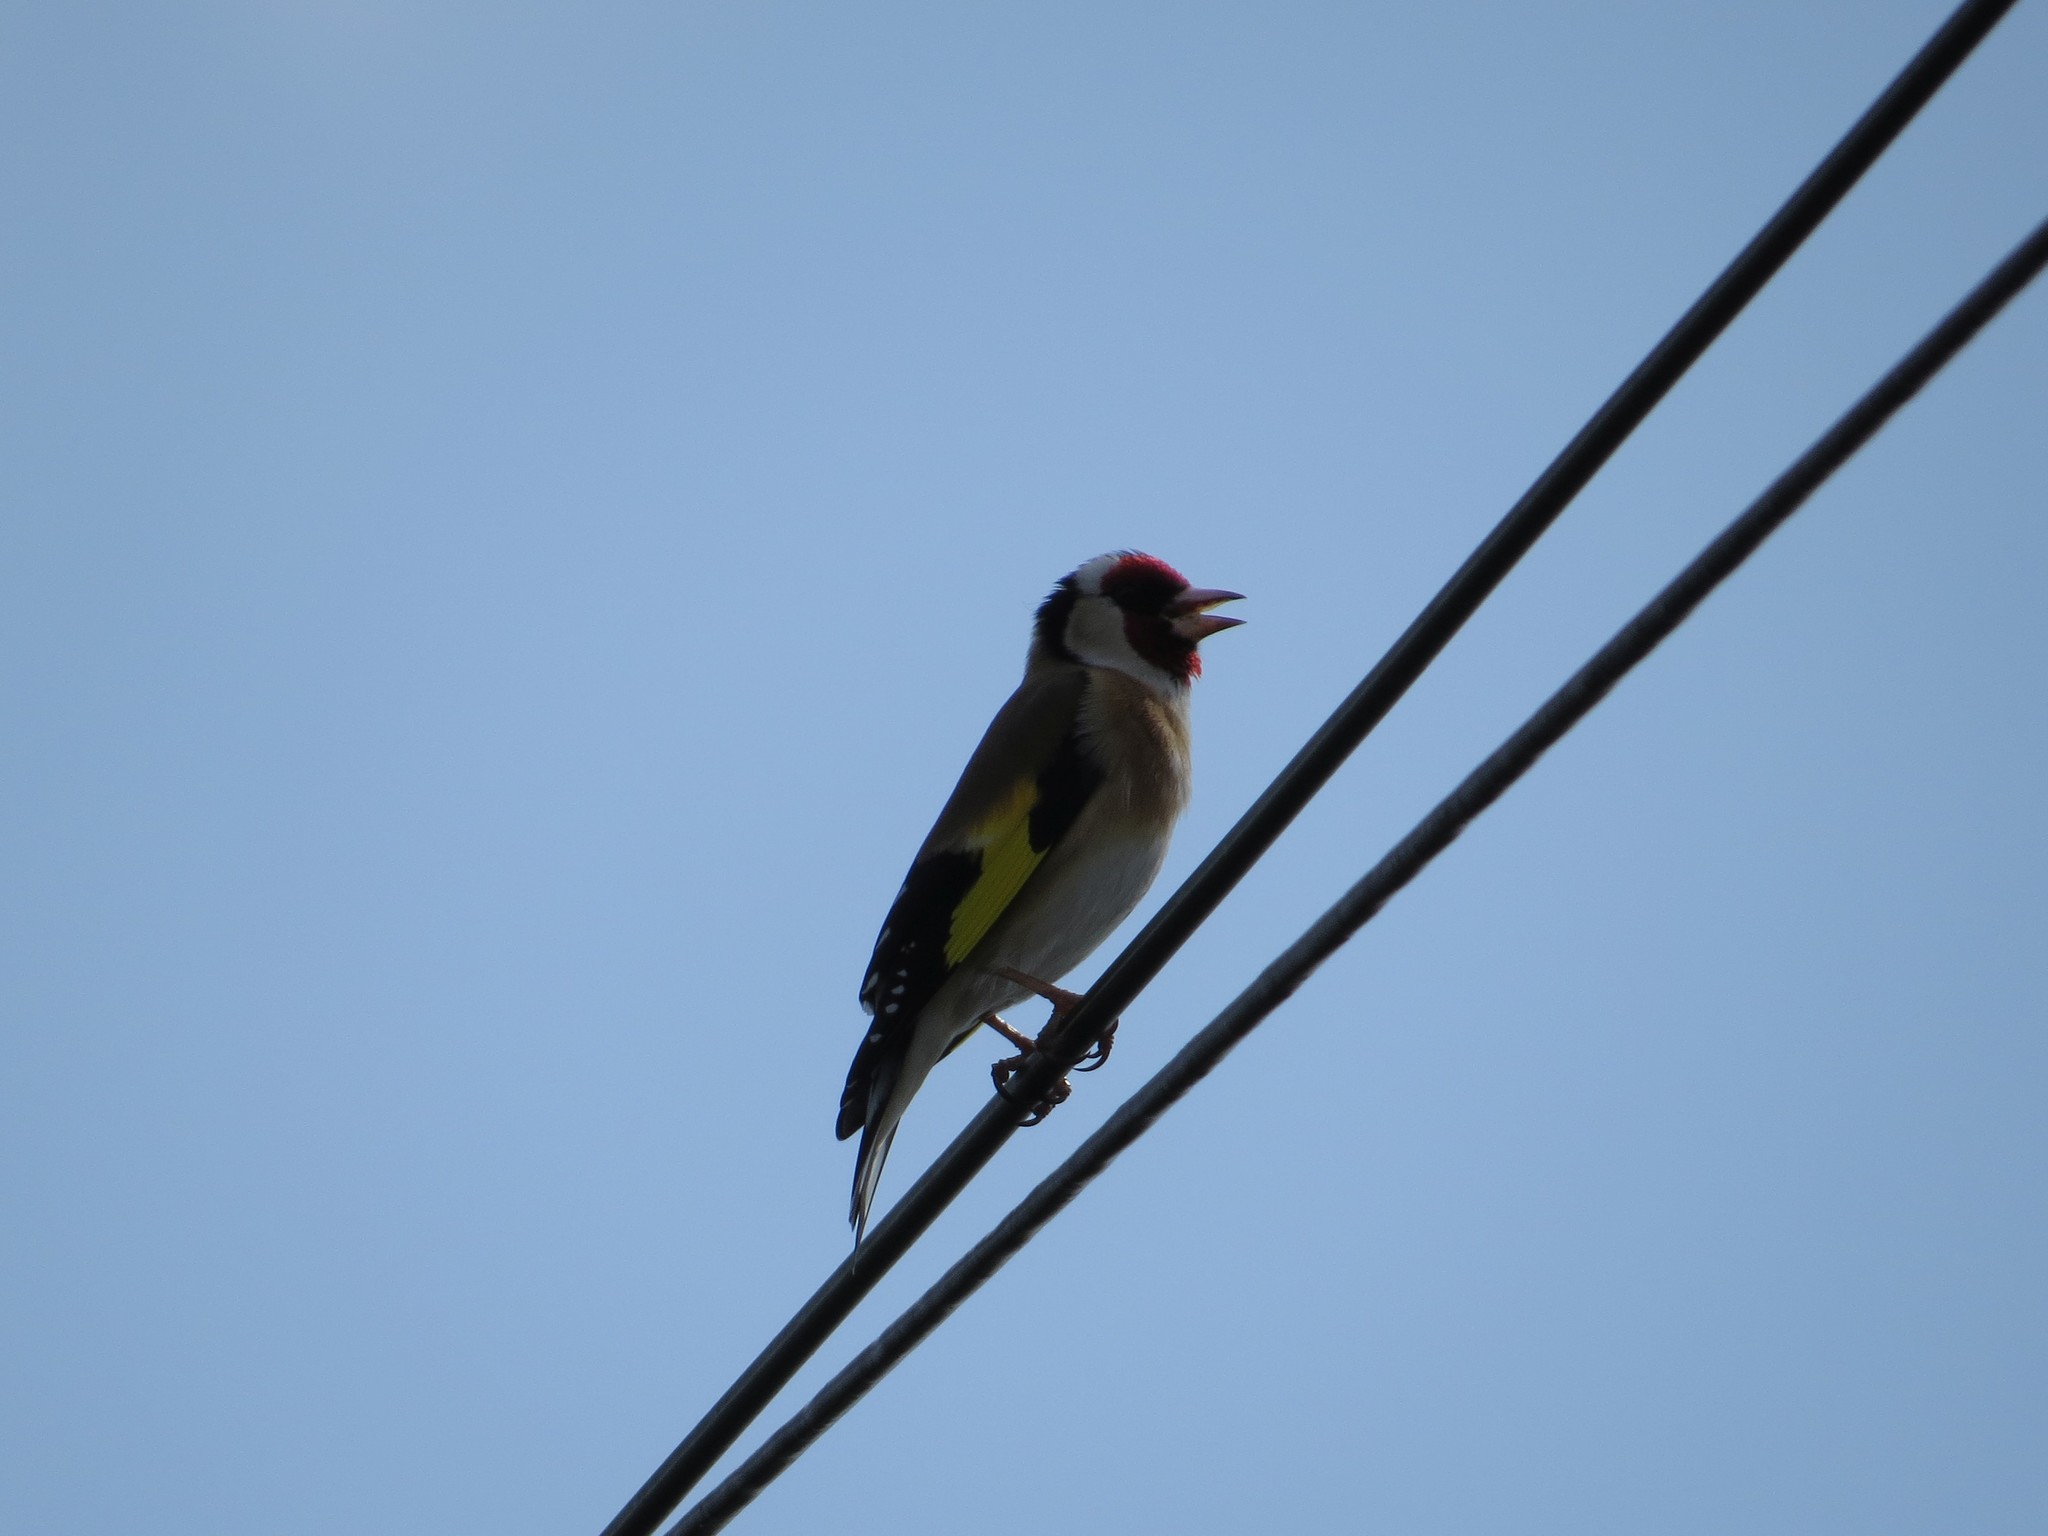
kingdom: Animalia
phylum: Chordata
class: Aves
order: Passeriformes
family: Fringillidae
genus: Carduelis
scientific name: Carduelis carduelis
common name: European goldfinch
